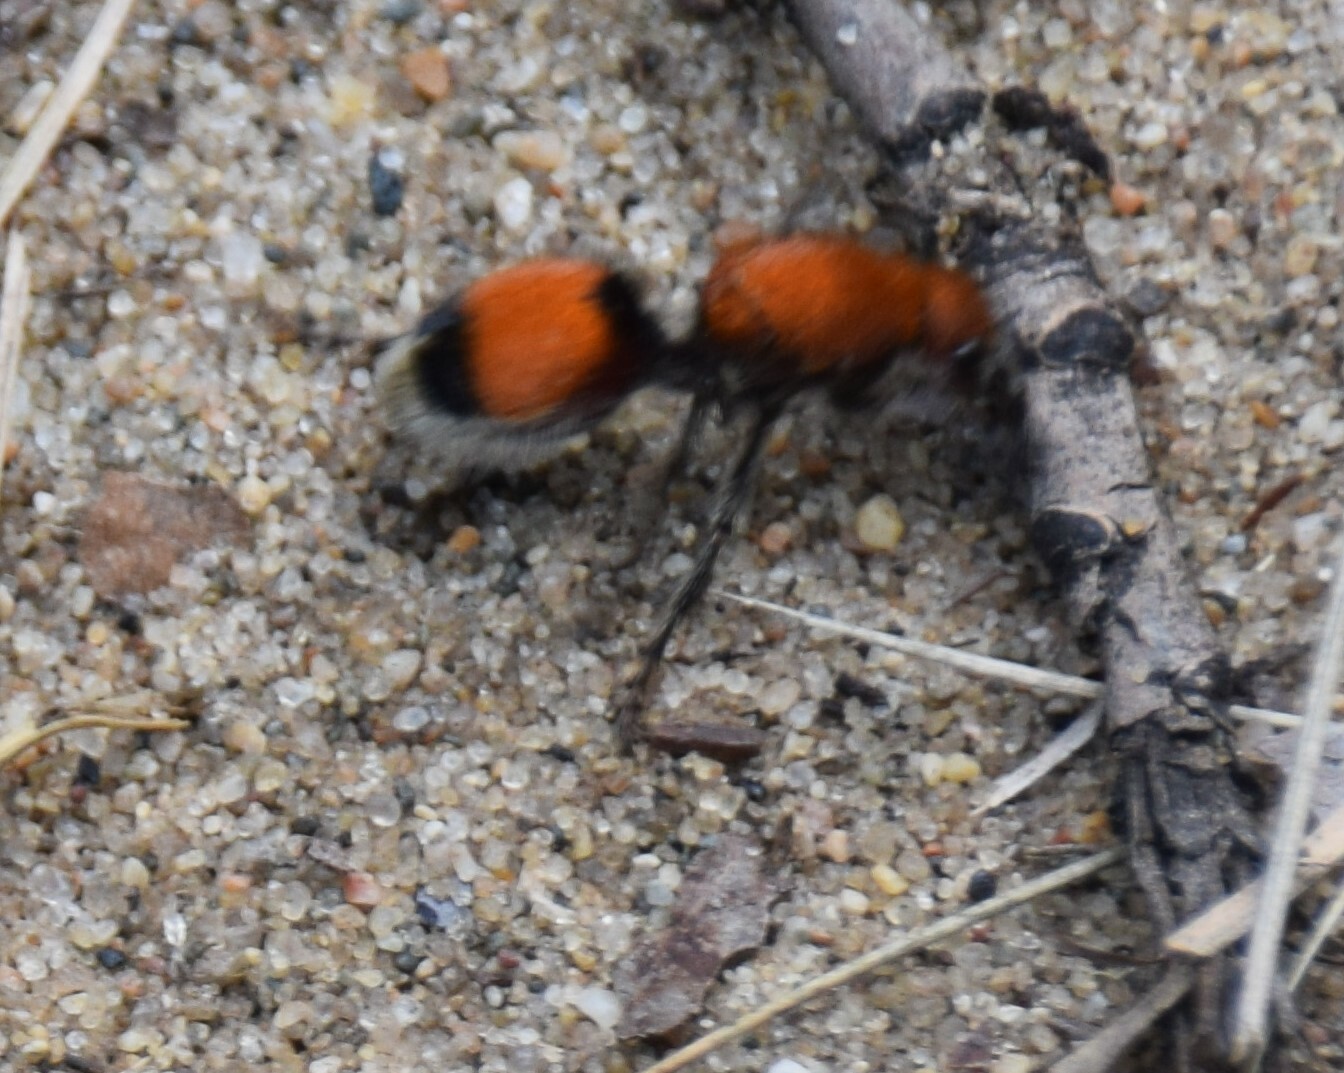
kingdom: Animalia
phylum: Arthropoda
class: Insecta
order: Hymenoptera
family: Mutillidae
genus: Dasymutilla
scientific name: Dasymutilla
